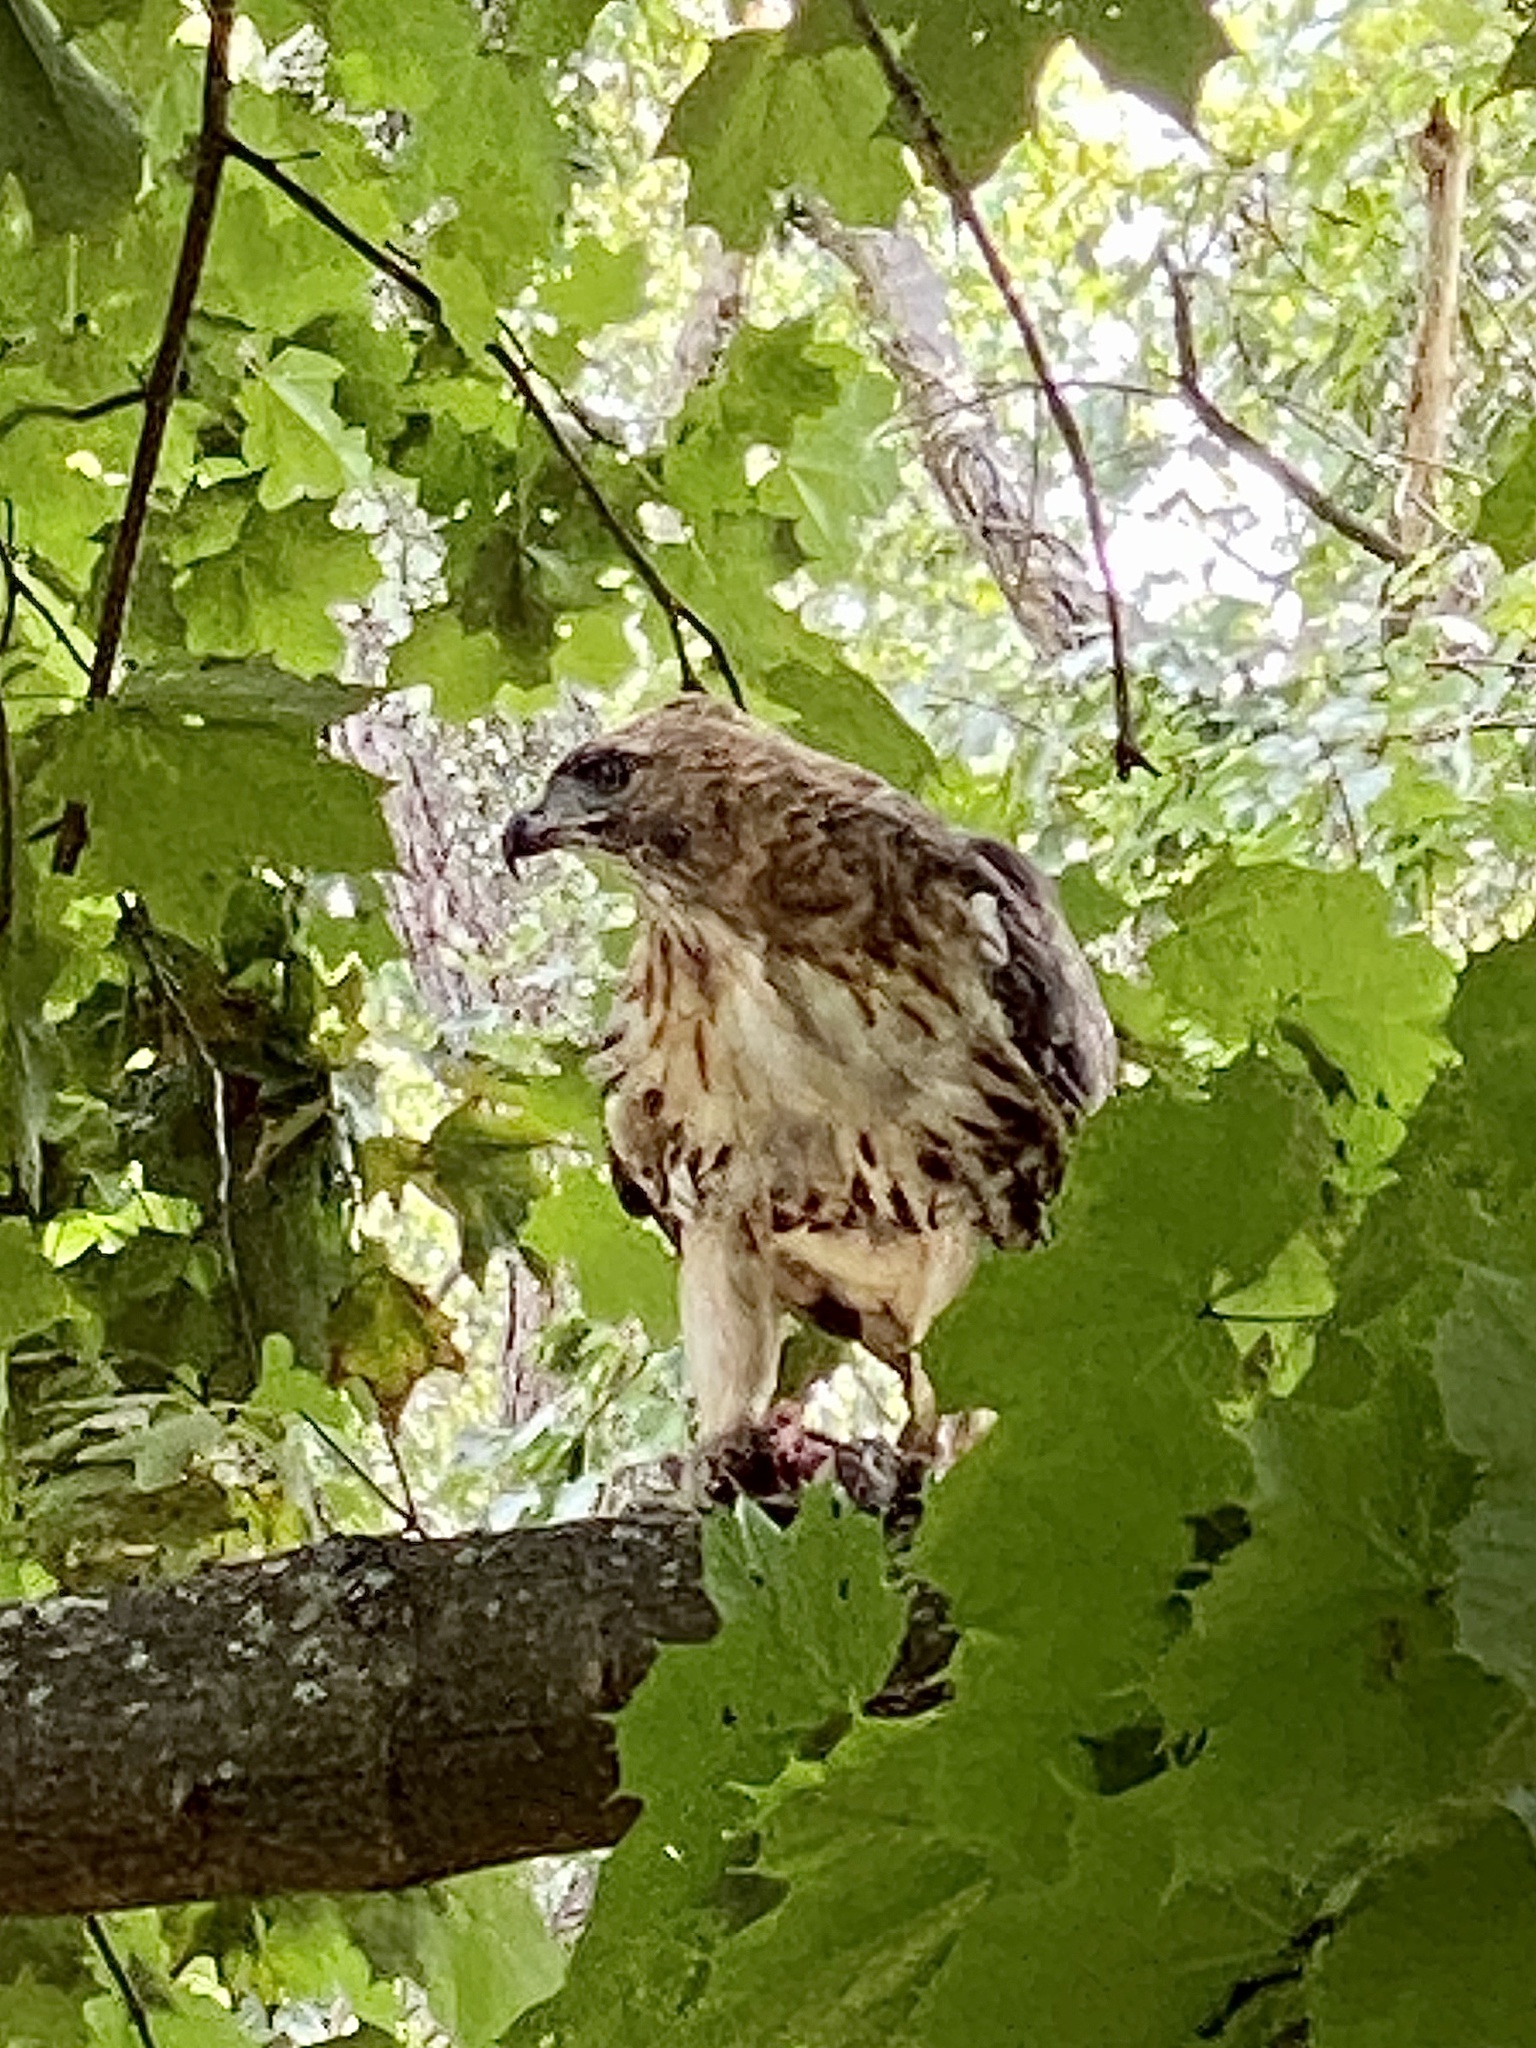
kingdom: Animalia
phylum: Chordata
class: Aves
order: Accipitriformes
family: Accipitridae
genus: Buteo
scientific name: Buteo jamaicensis
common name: Red-tailed hawk
